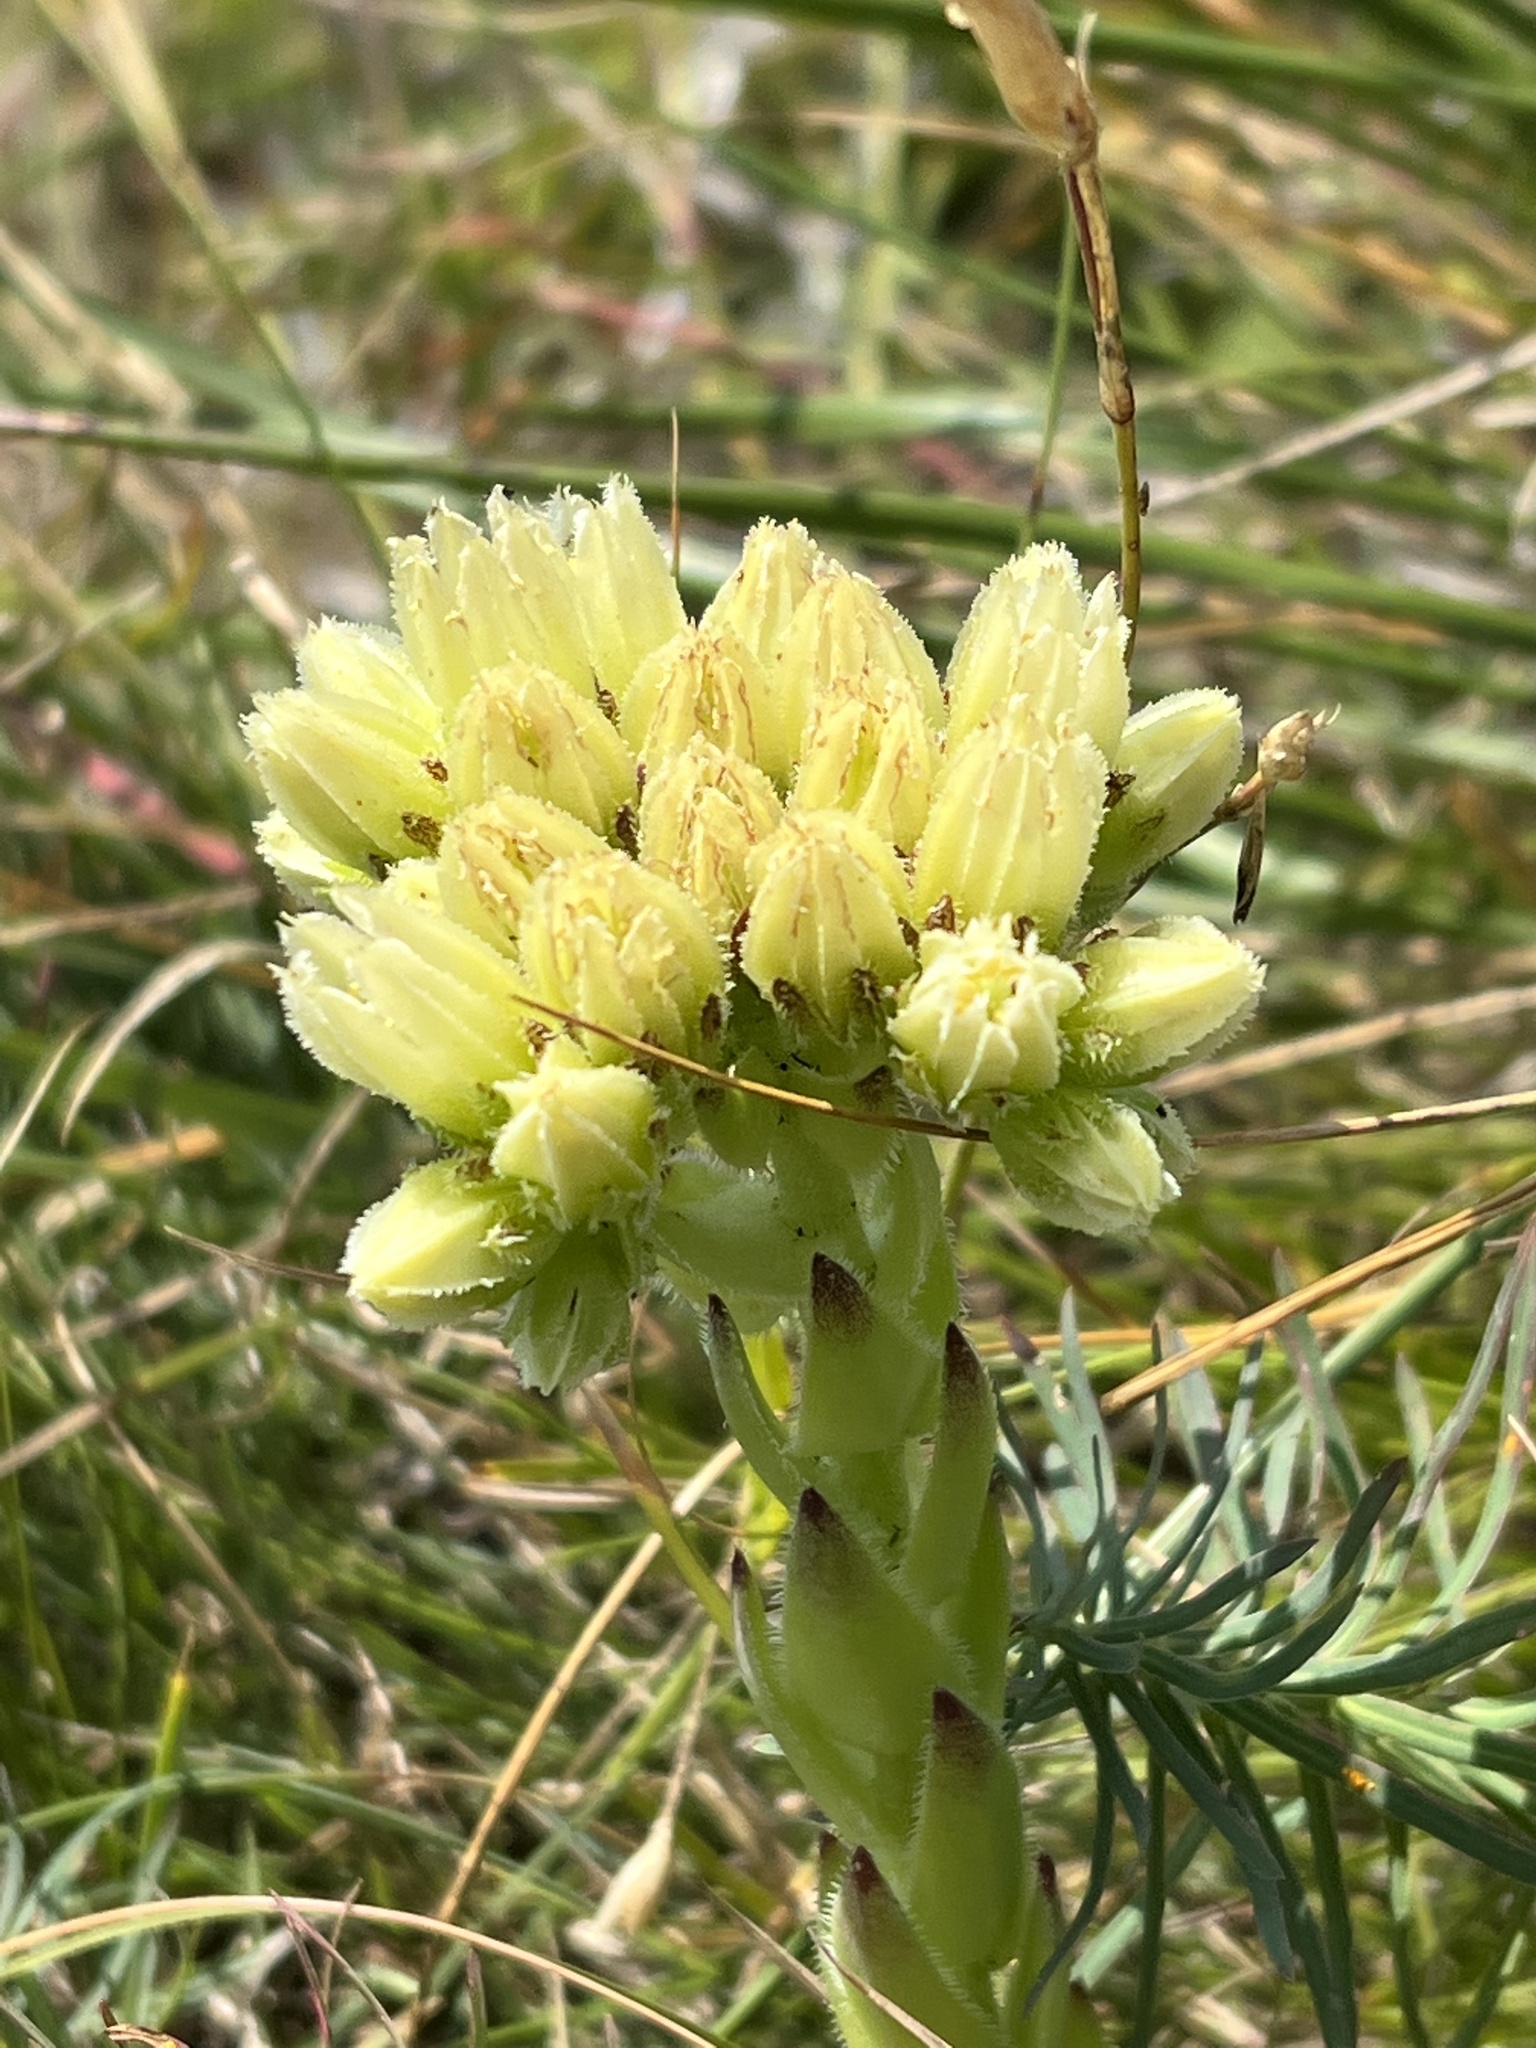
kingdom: Plantae
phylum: Tracheophyta
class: Magnoliopsida
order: Saxifragales
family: Crassulaceae
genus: Sempervivum
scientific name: Sempervivum globiferum
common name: Rolling hen-and-chicks
